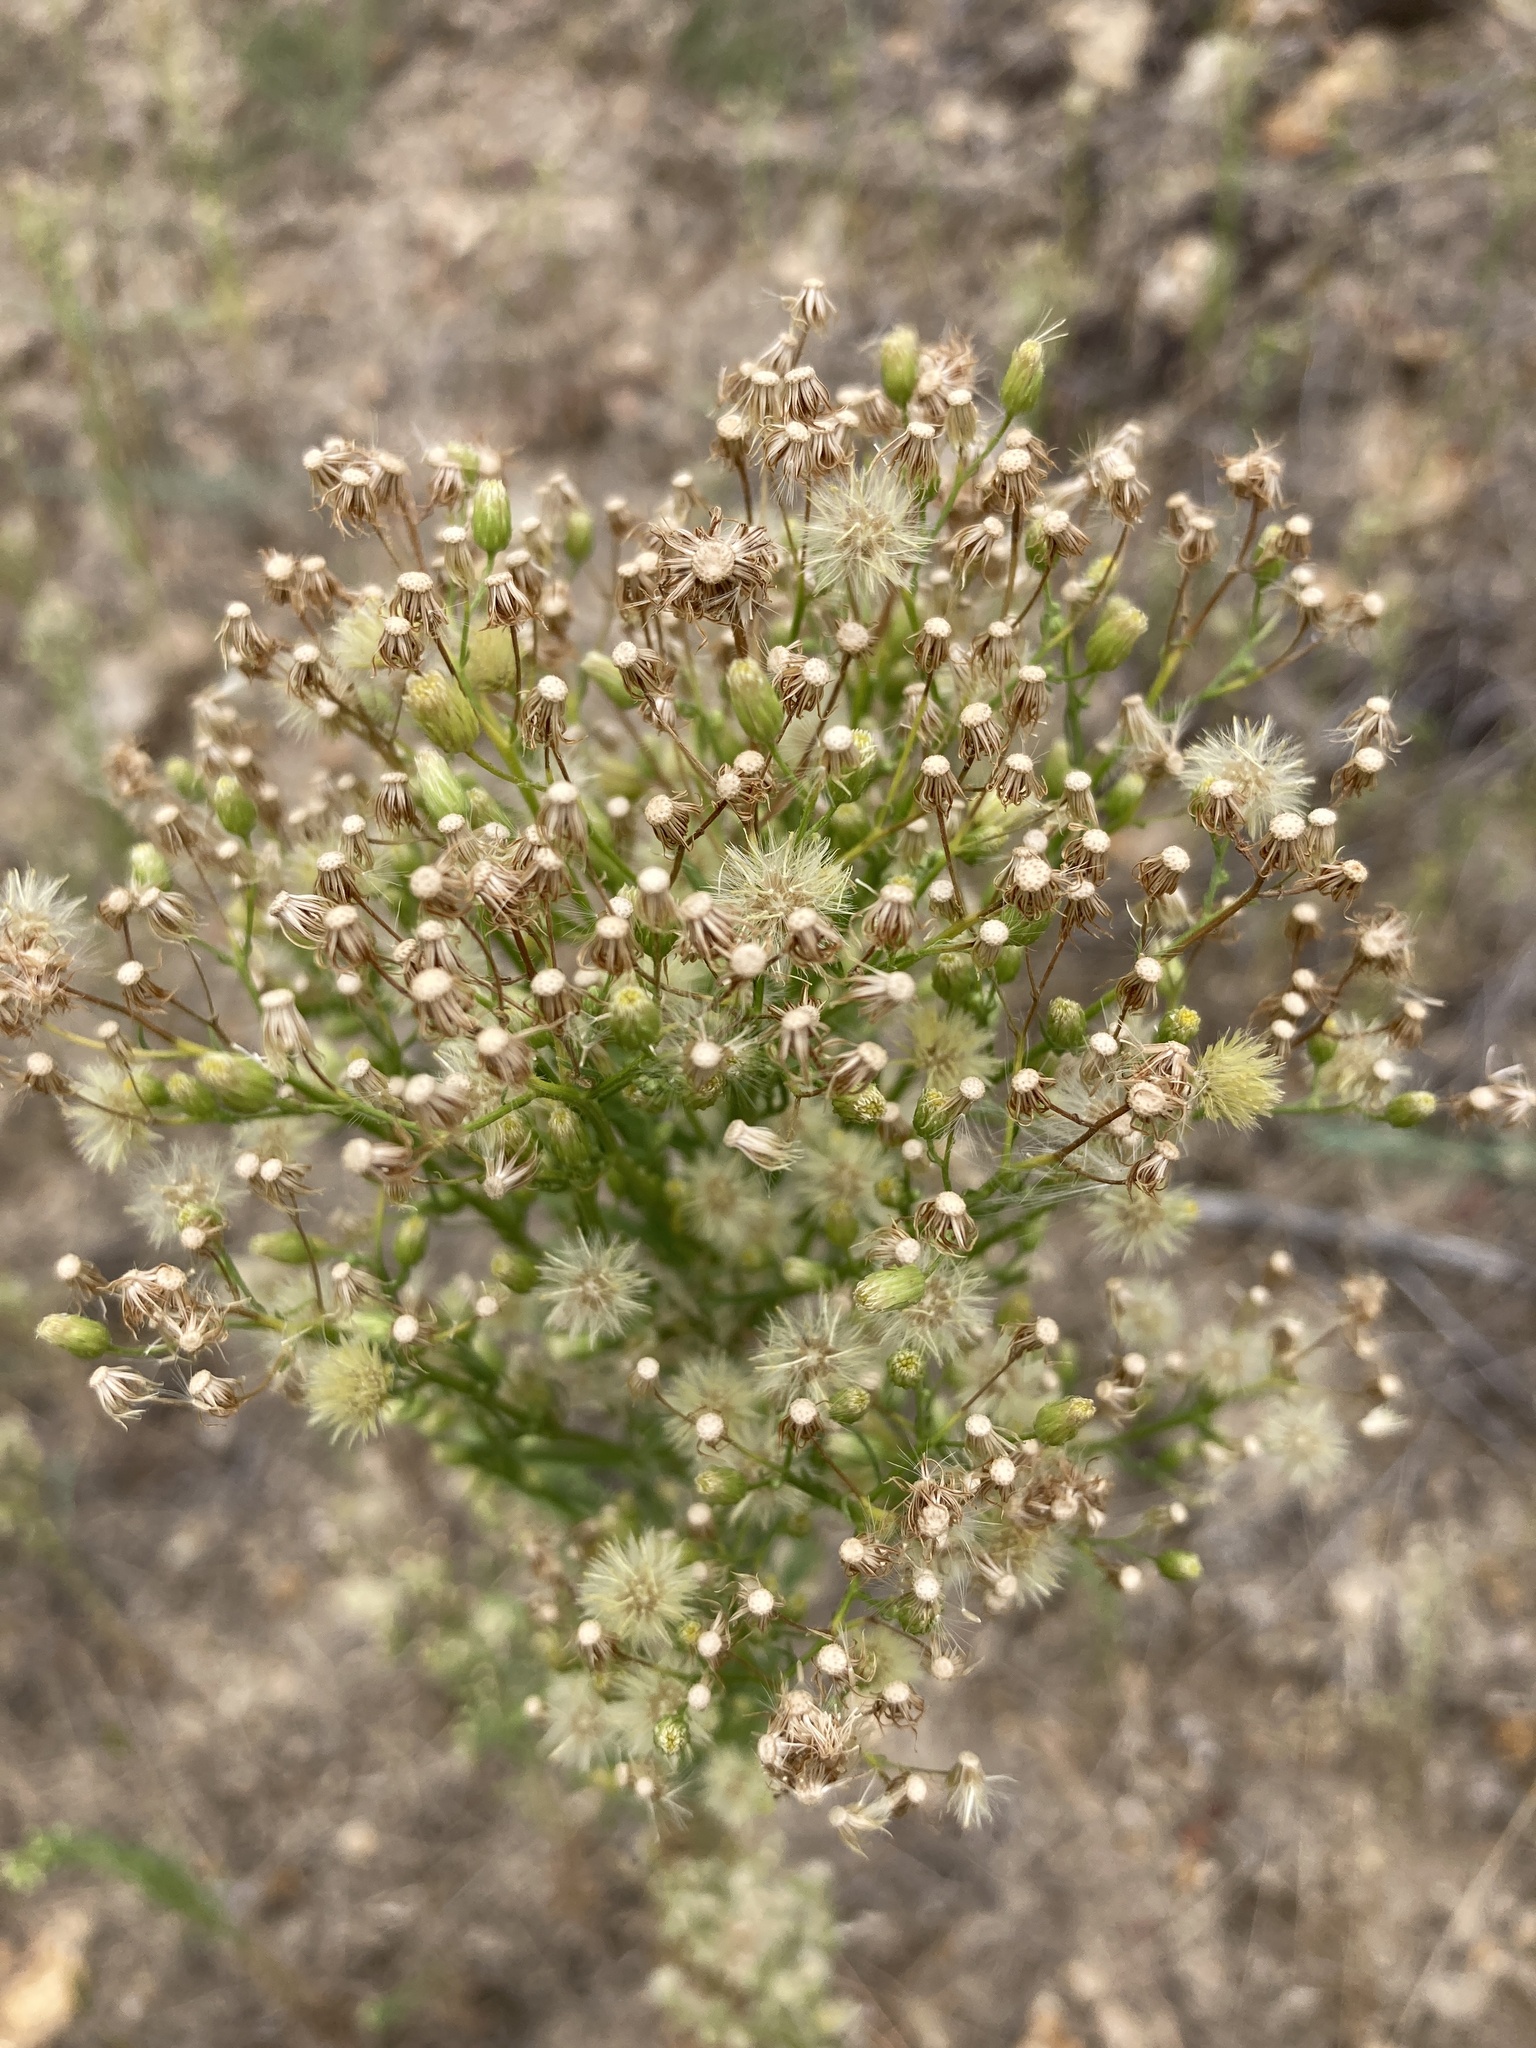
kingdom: Plantae
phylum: Tracheophyta
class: Magnoliopsida
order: Asterales
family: Asteraceae
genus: Erigeron
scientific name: Erigeron canadensis
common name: Canadian fleabane
